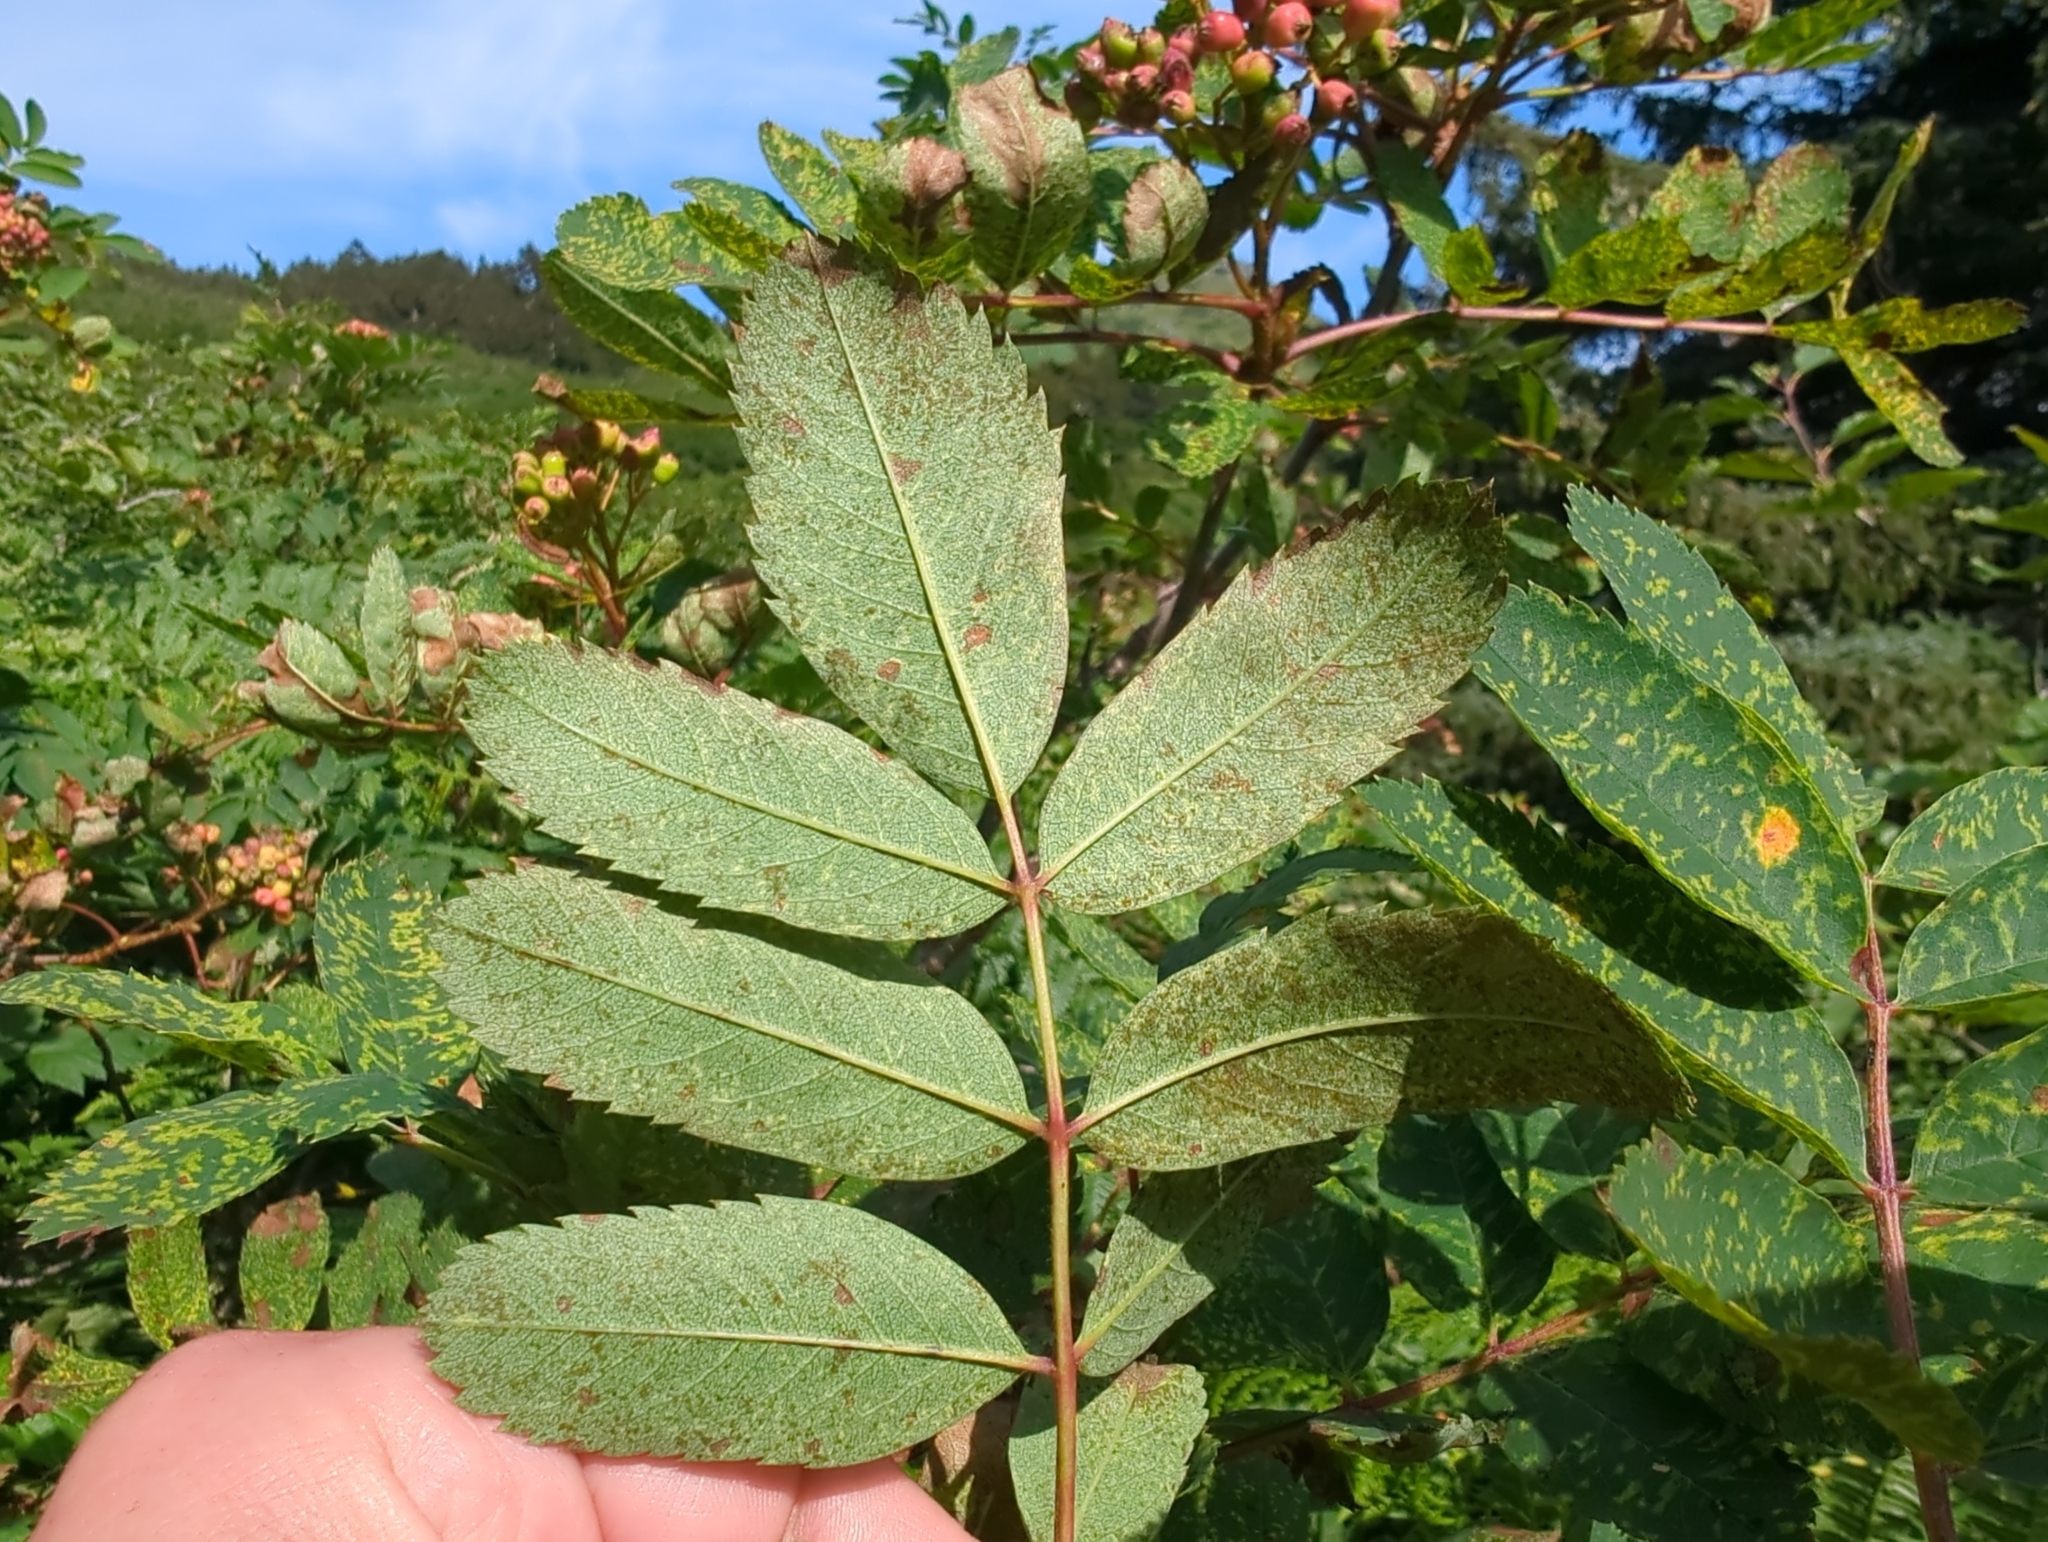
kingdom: Plantae
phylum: Tracheophyta
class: Magnoliopsida
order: Rosales
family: Rosaceae
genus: Sorbus
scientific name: Sorbus sitchensis
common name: Sitka mountain-ash
